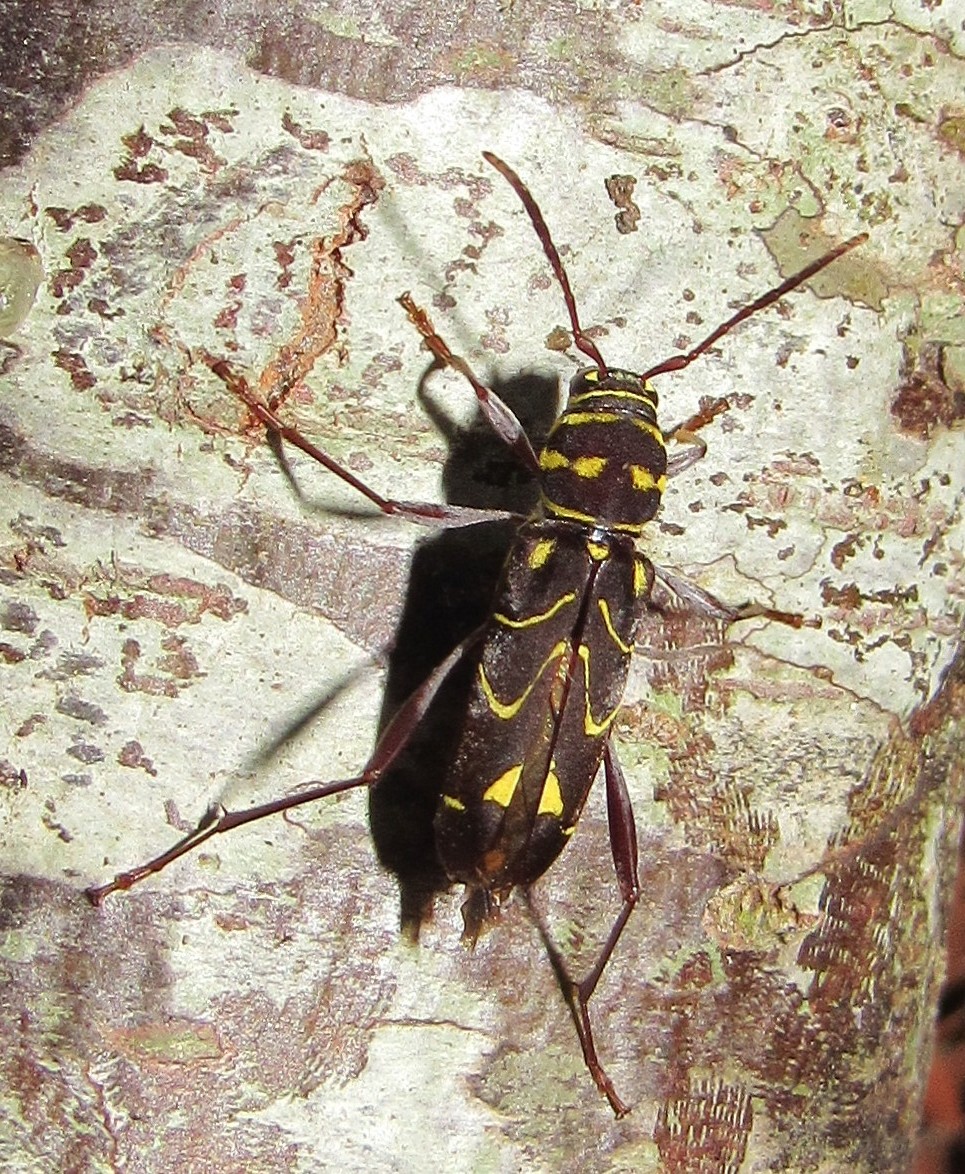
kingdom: Animalia
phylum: Arthropoda
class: Insecta
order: Coleoptera
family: Cerambycidae
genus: Cotyclytus
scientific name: Cotyclytus curvatus
